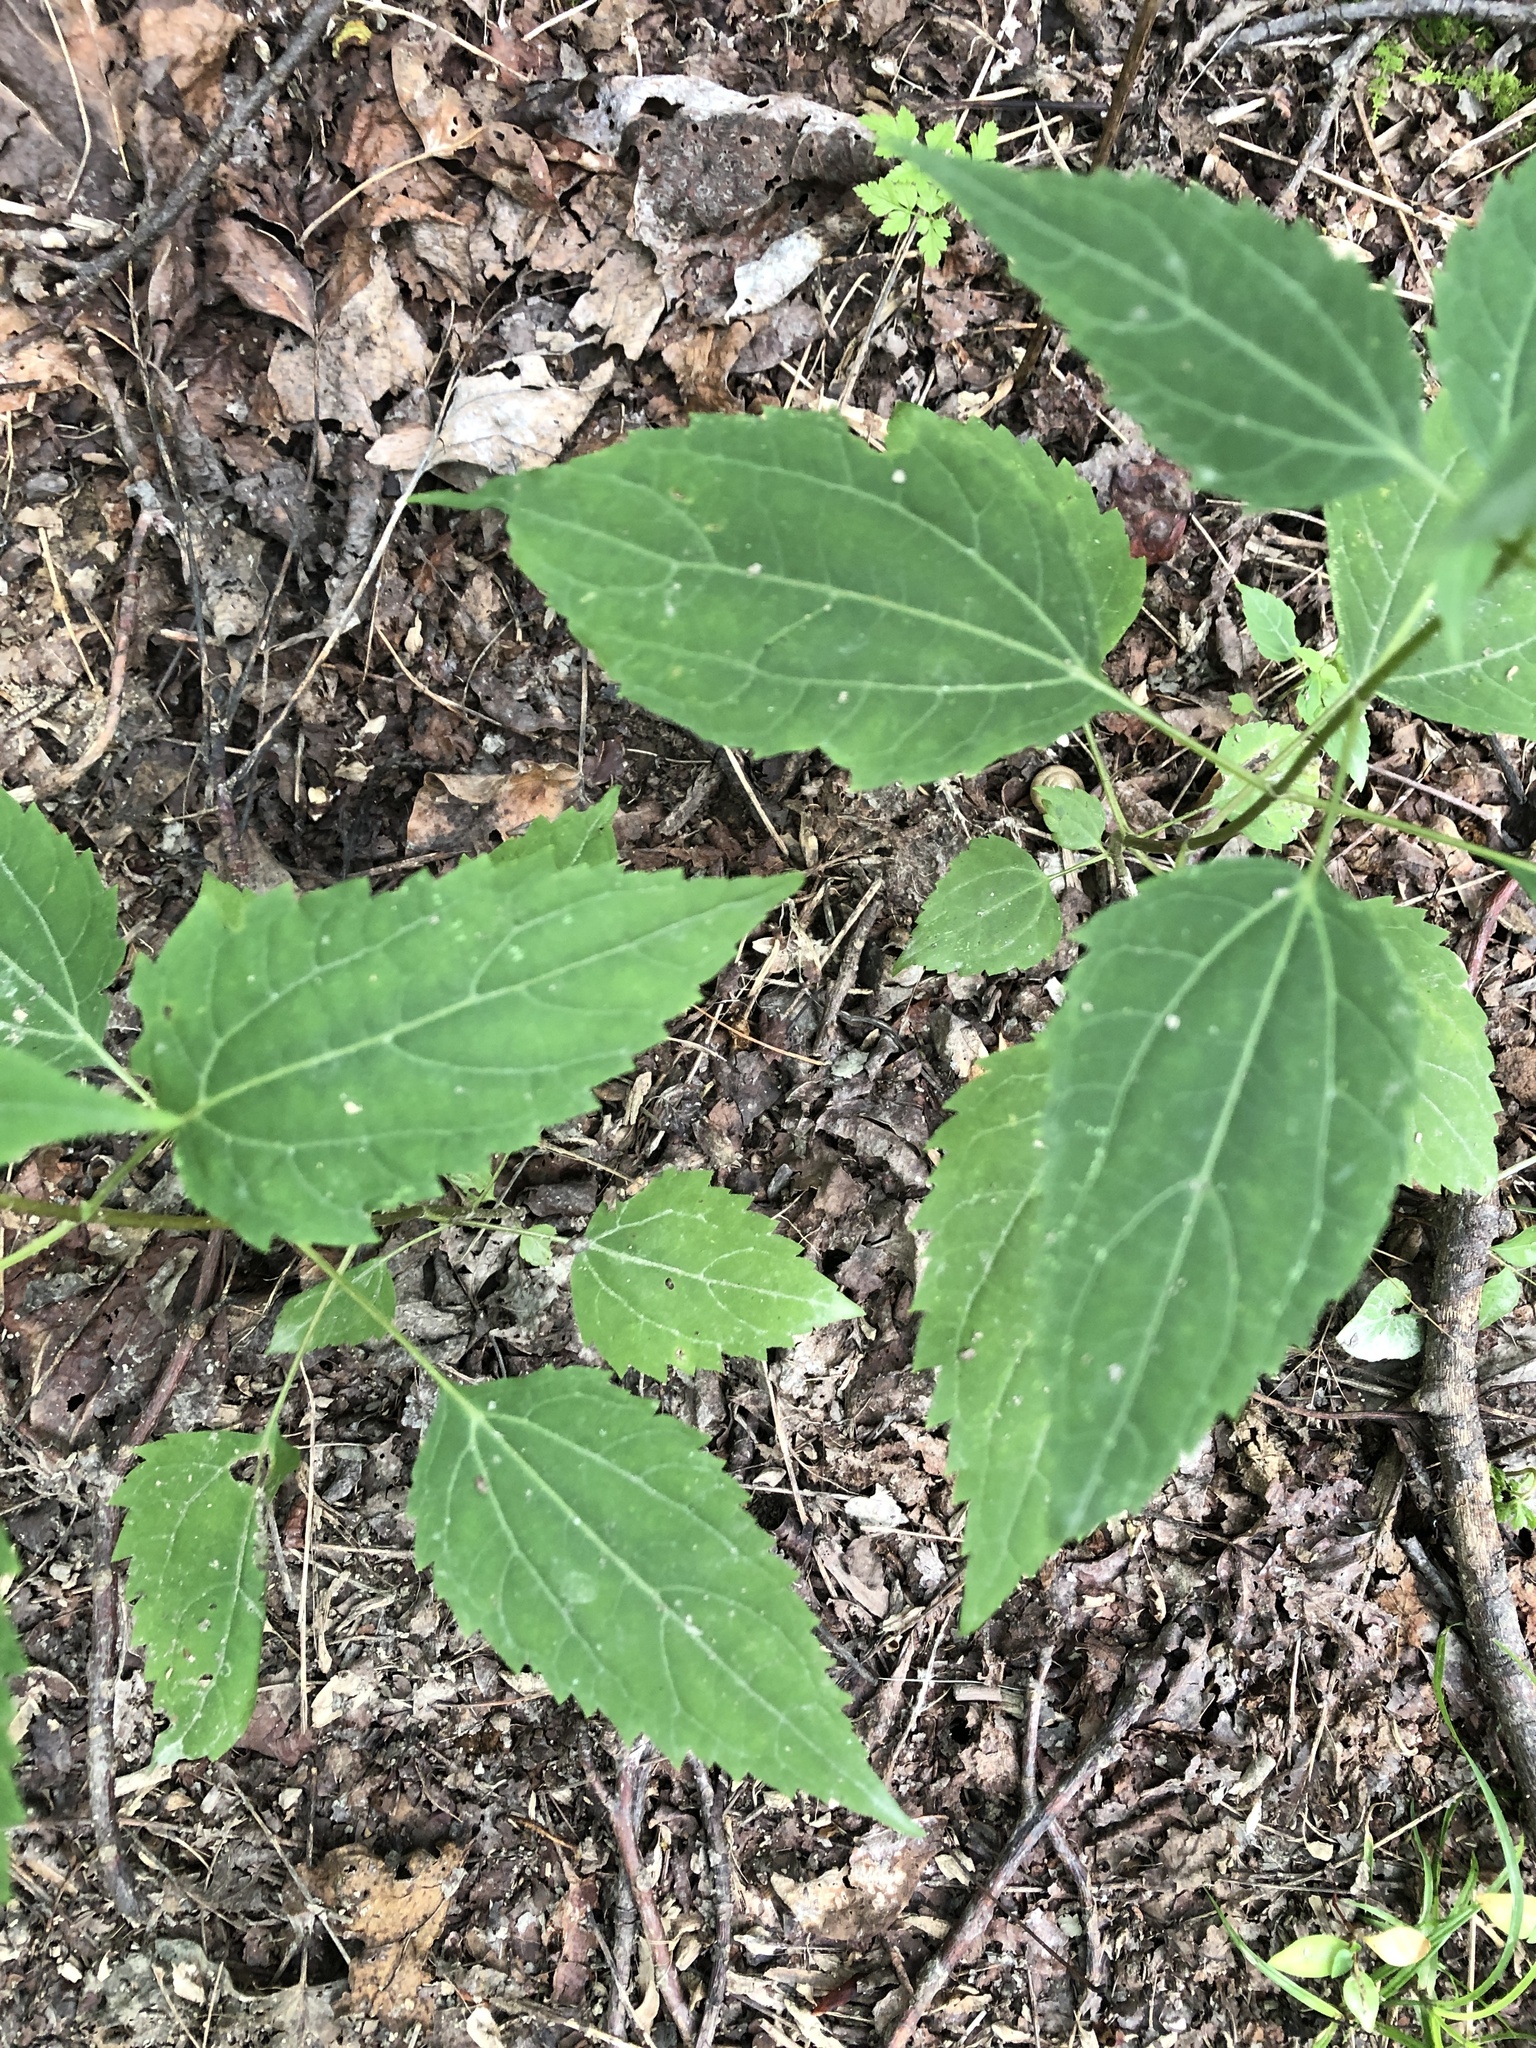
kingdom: Plantae
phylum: Tracheophyta
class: Magnoliopsida
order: Asterales
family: Asteraceae
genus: Ageratina
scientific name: Ageratina altissima
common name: White snakeroot
